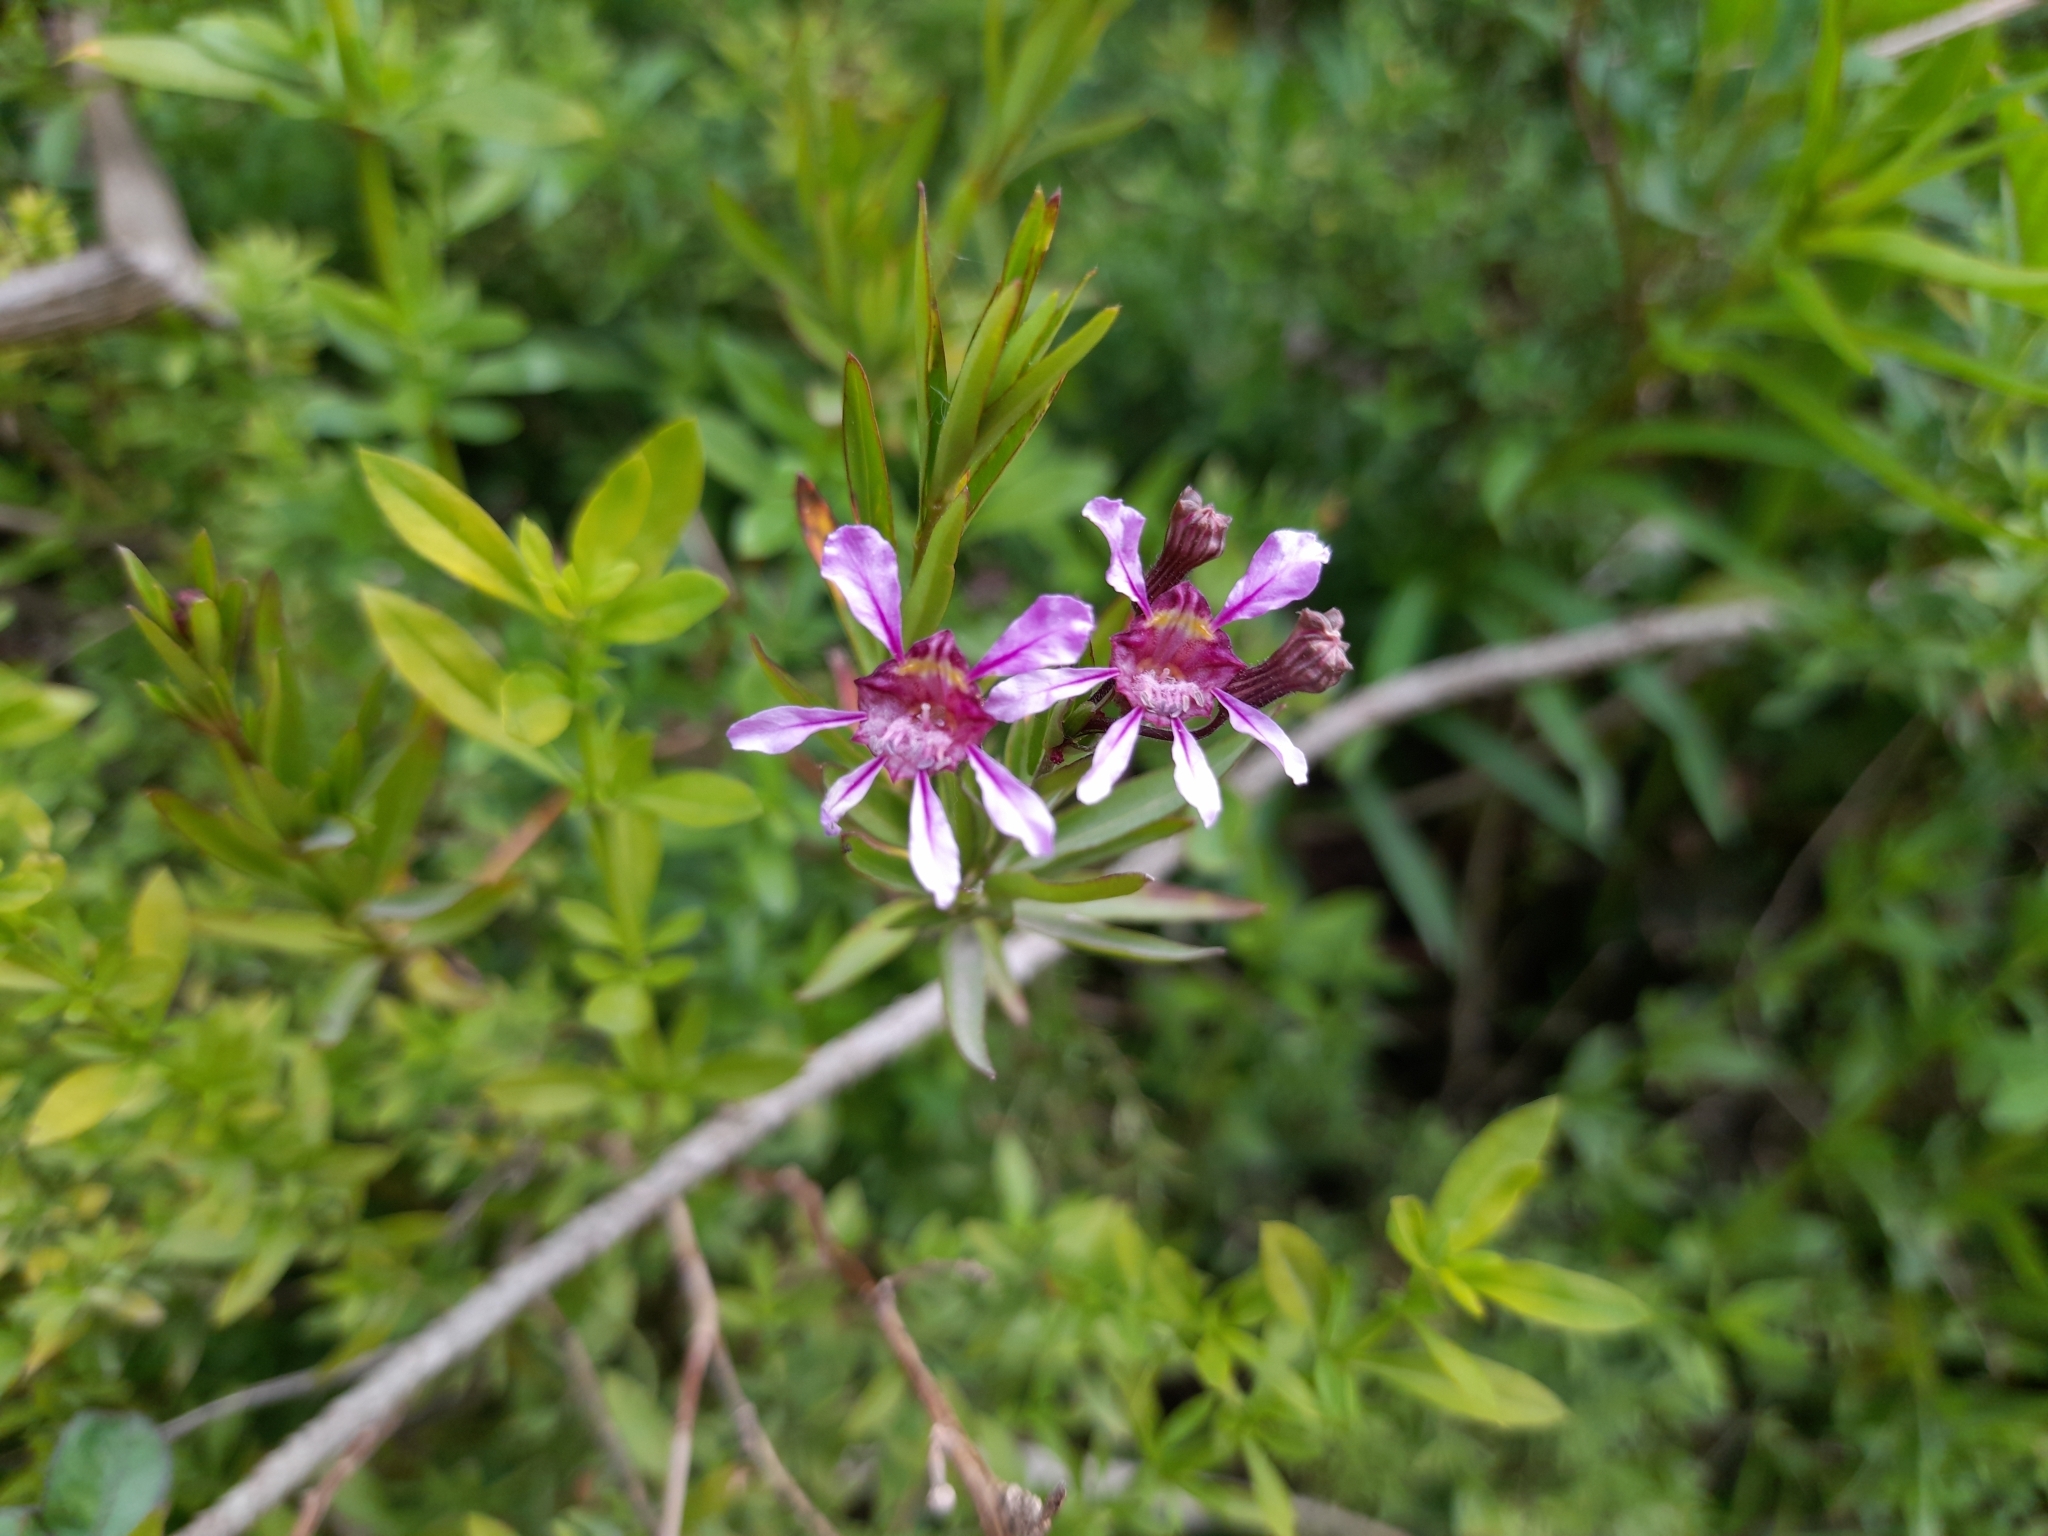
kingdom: Plantae
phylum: Tracheophyta
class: Magnoliopsida
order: Myrtales
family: Lythraceae
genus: Cuphea
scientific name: Cuphea fruticosa
